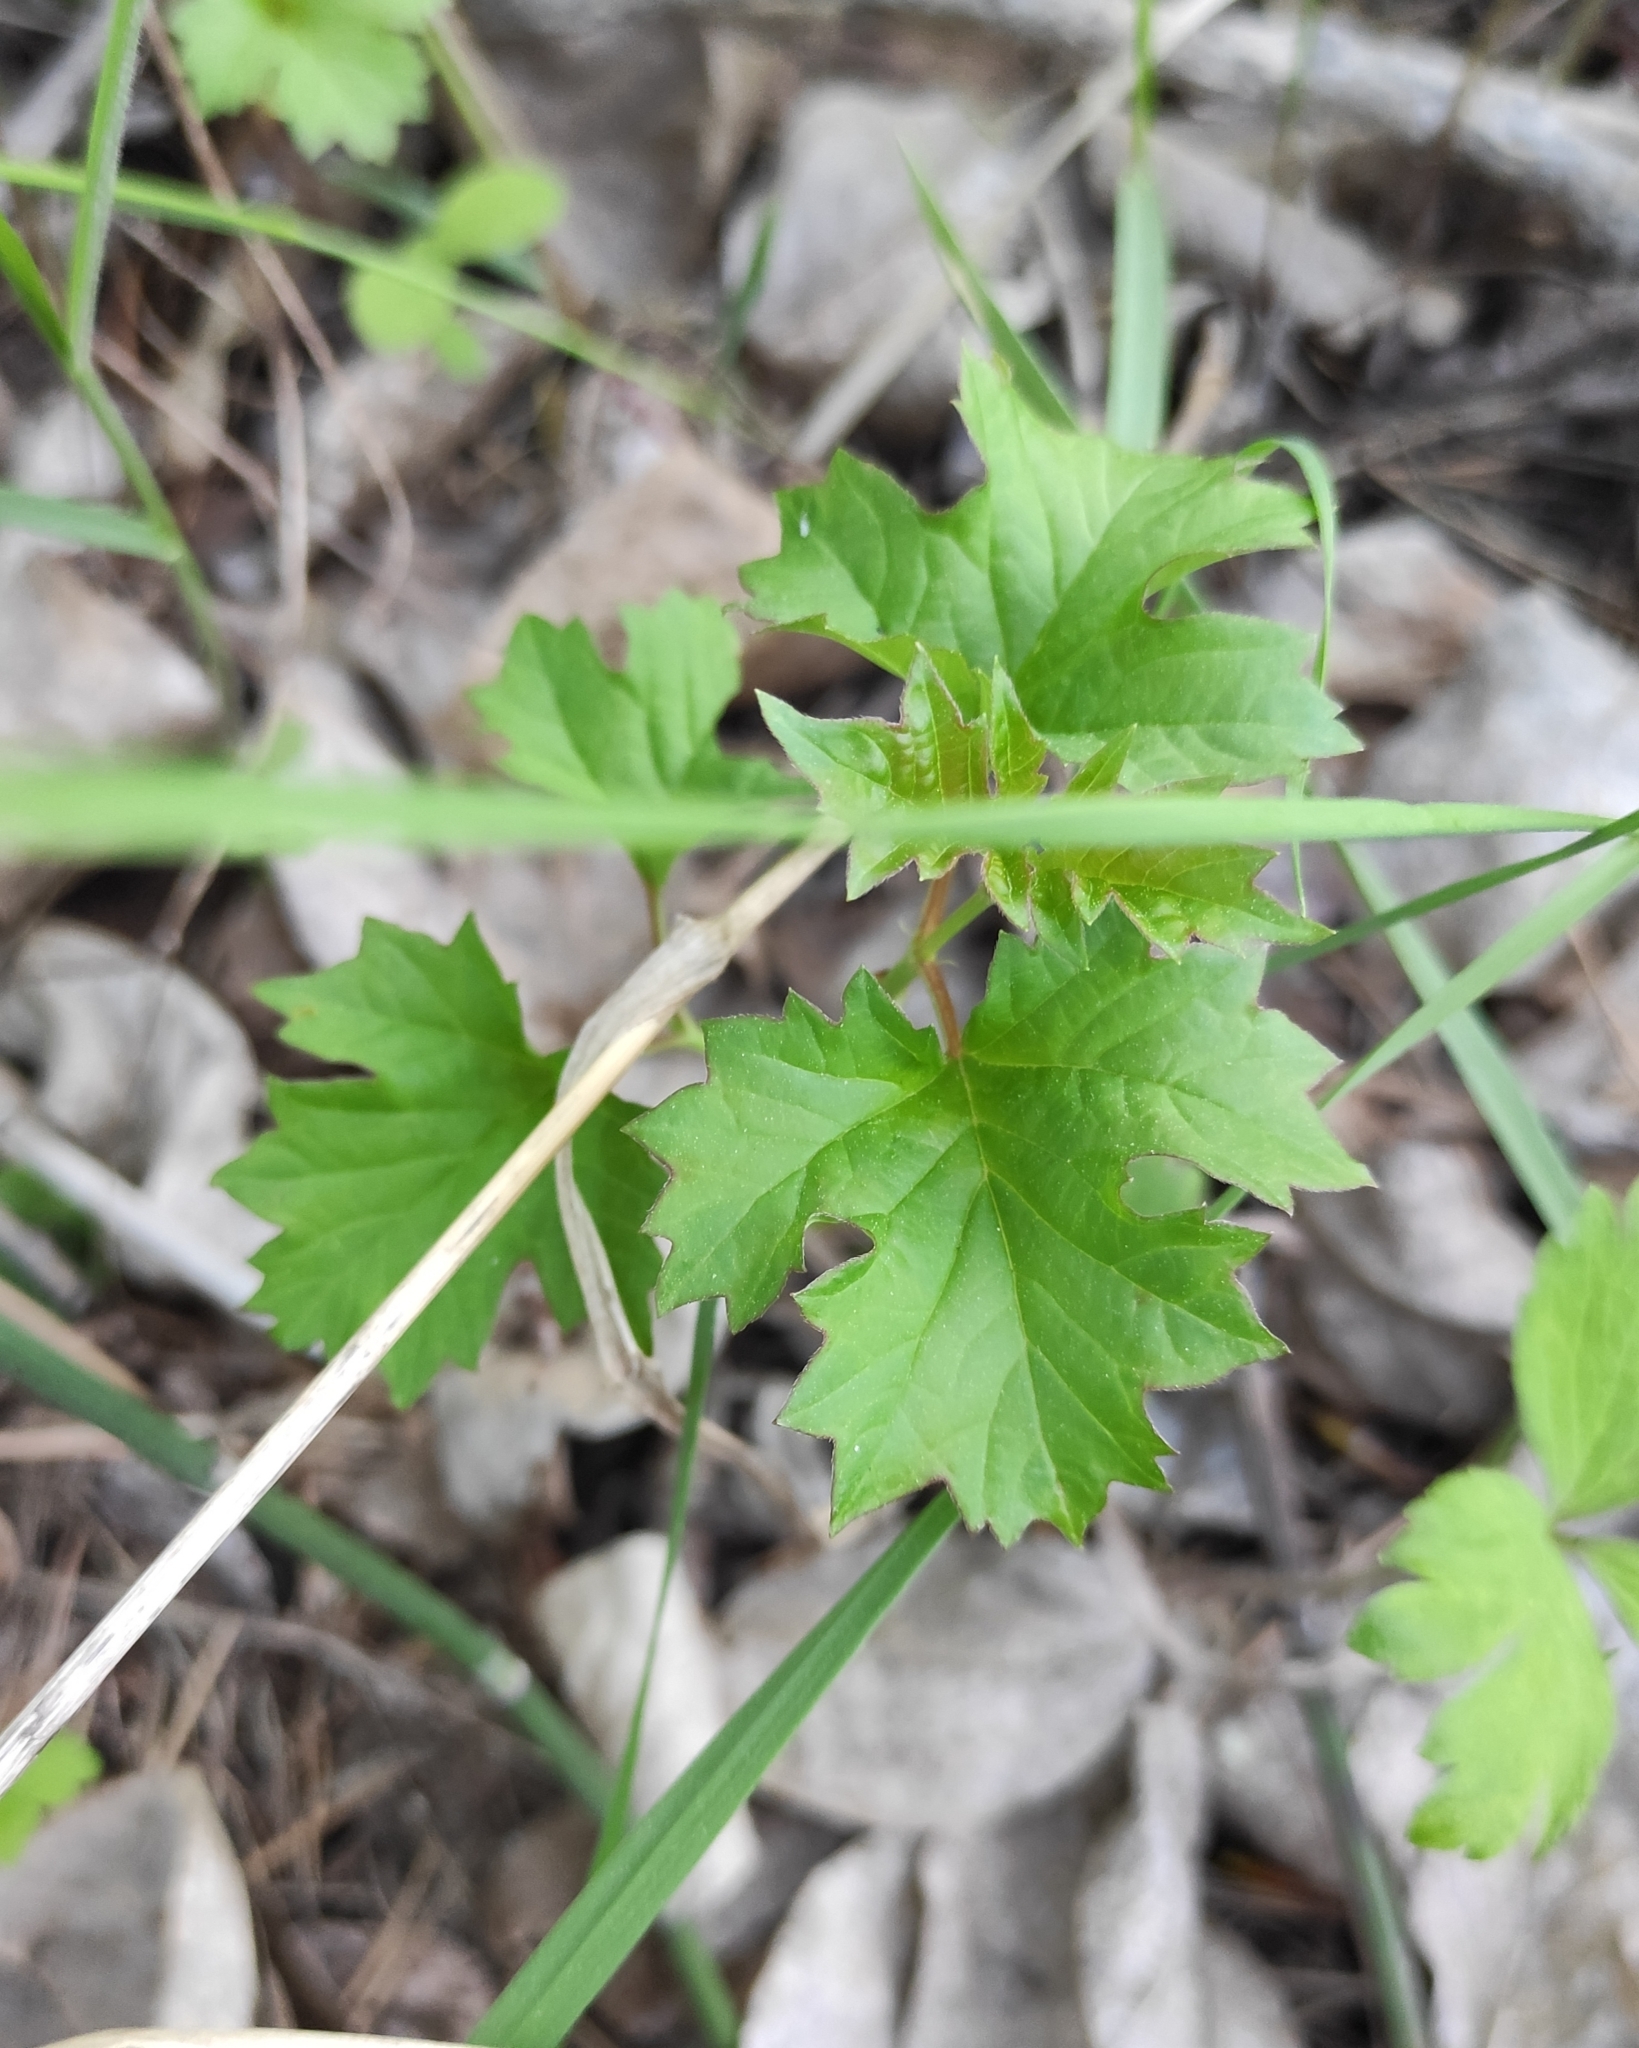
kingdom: Plantae
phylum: Tracheophyta
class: Magnoliopsida
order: Dipsacales
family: Viburnaceae
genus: Viburnum
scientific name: Viburnum opulus
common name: Guelder-rose
